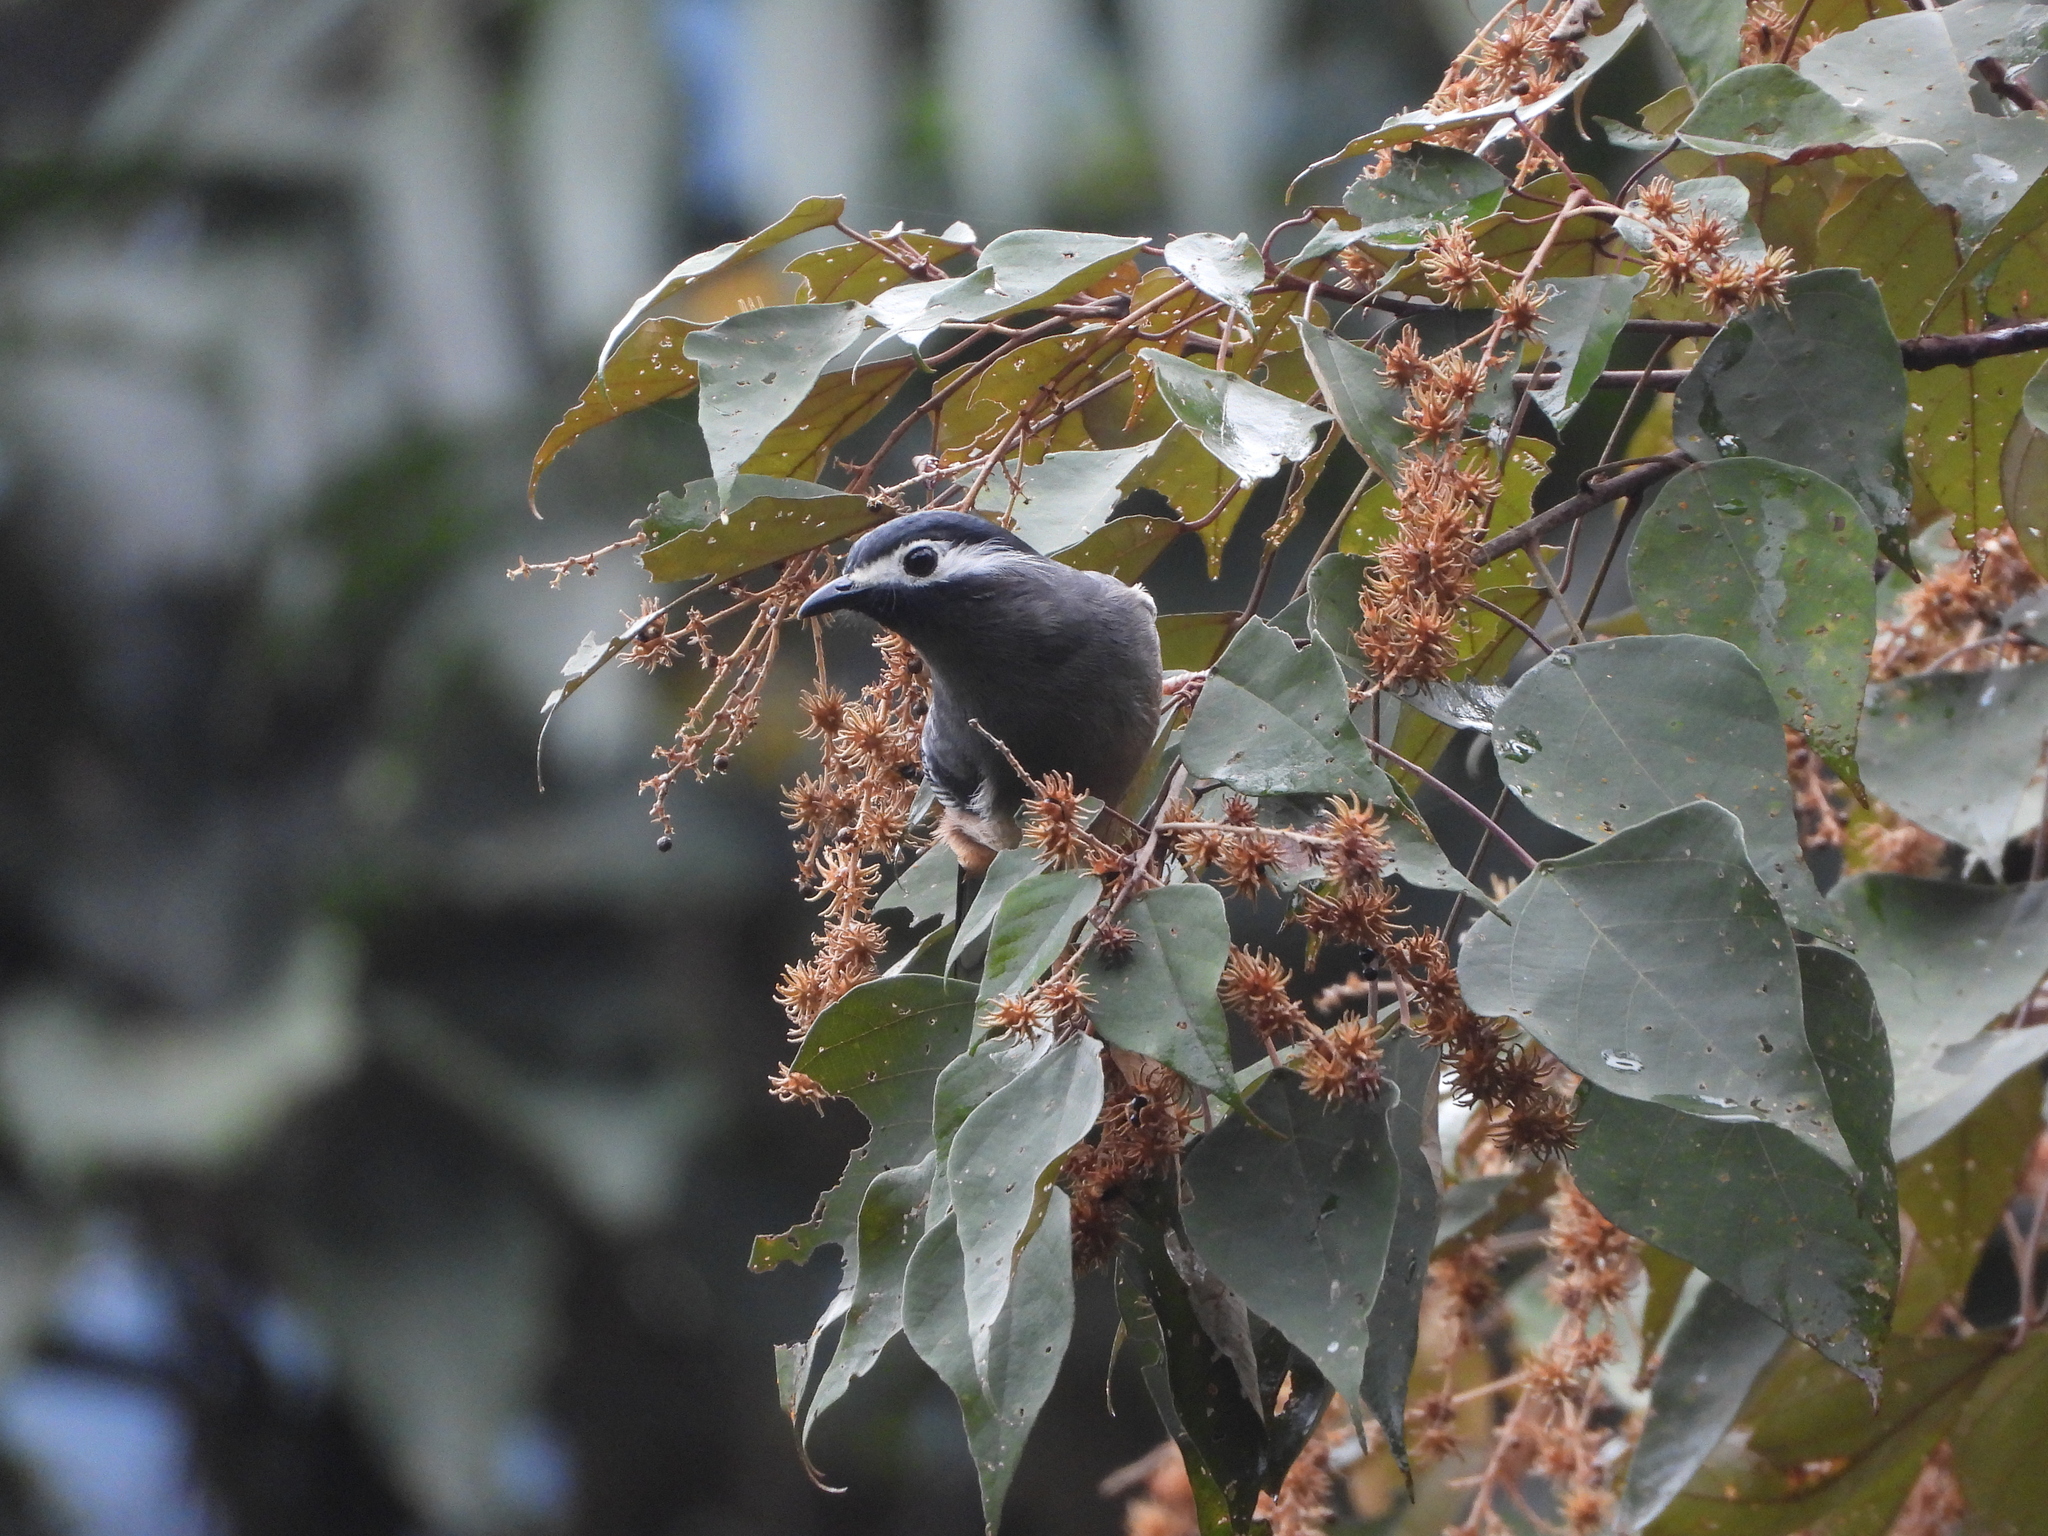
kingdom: Animalia
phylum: Chordata
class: Aves
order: Passeriformes
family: Leiothrichidae
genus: Heterophasia
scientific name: Heterophasia auricularis
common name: White-eared sibia
